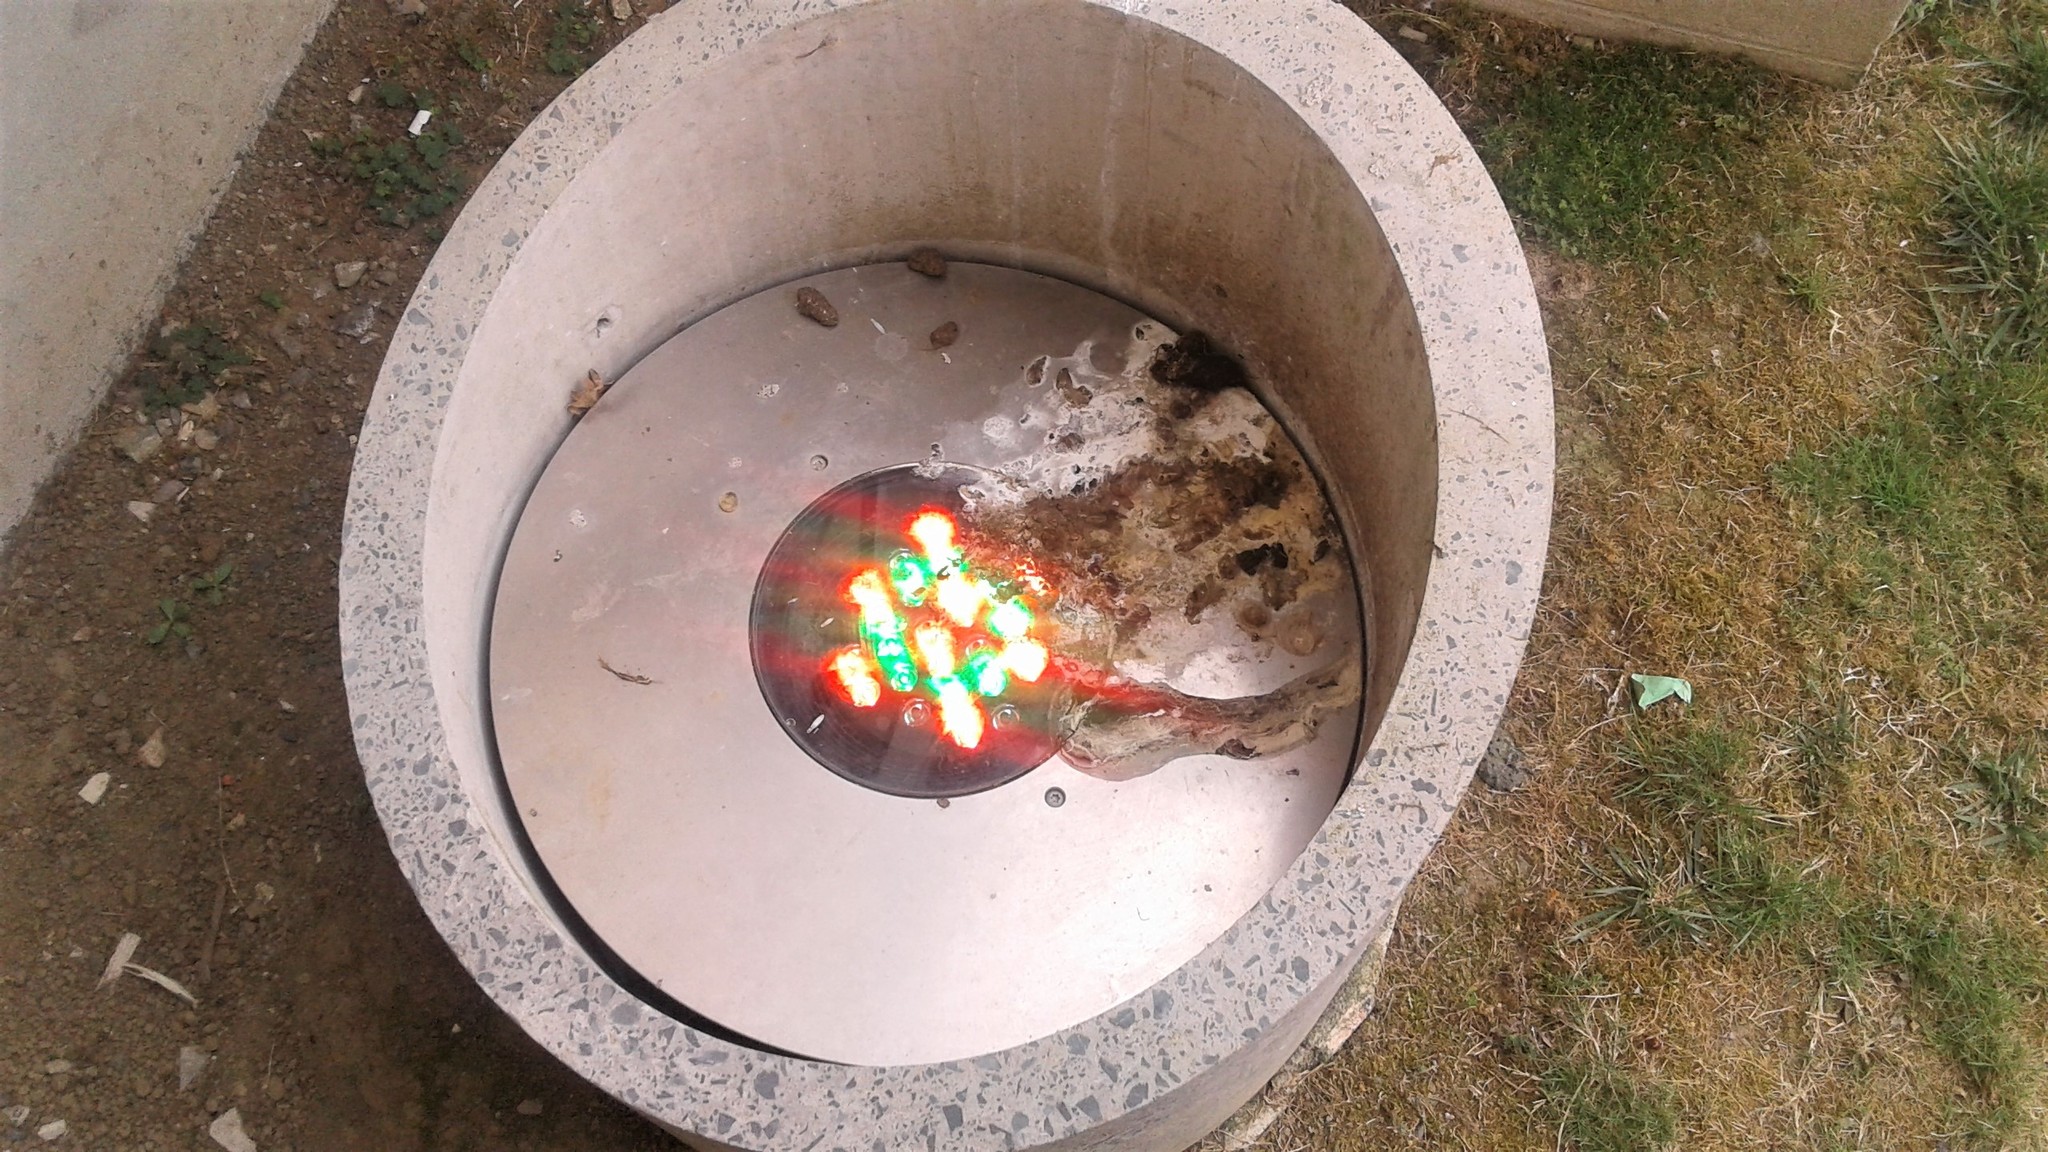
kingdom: Animalia
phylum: Chordata
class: Aves
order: Pelecaniformes
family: Ardeidae
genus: Egretta
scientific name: Egretta novaehollandiae
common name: White-faced heron
